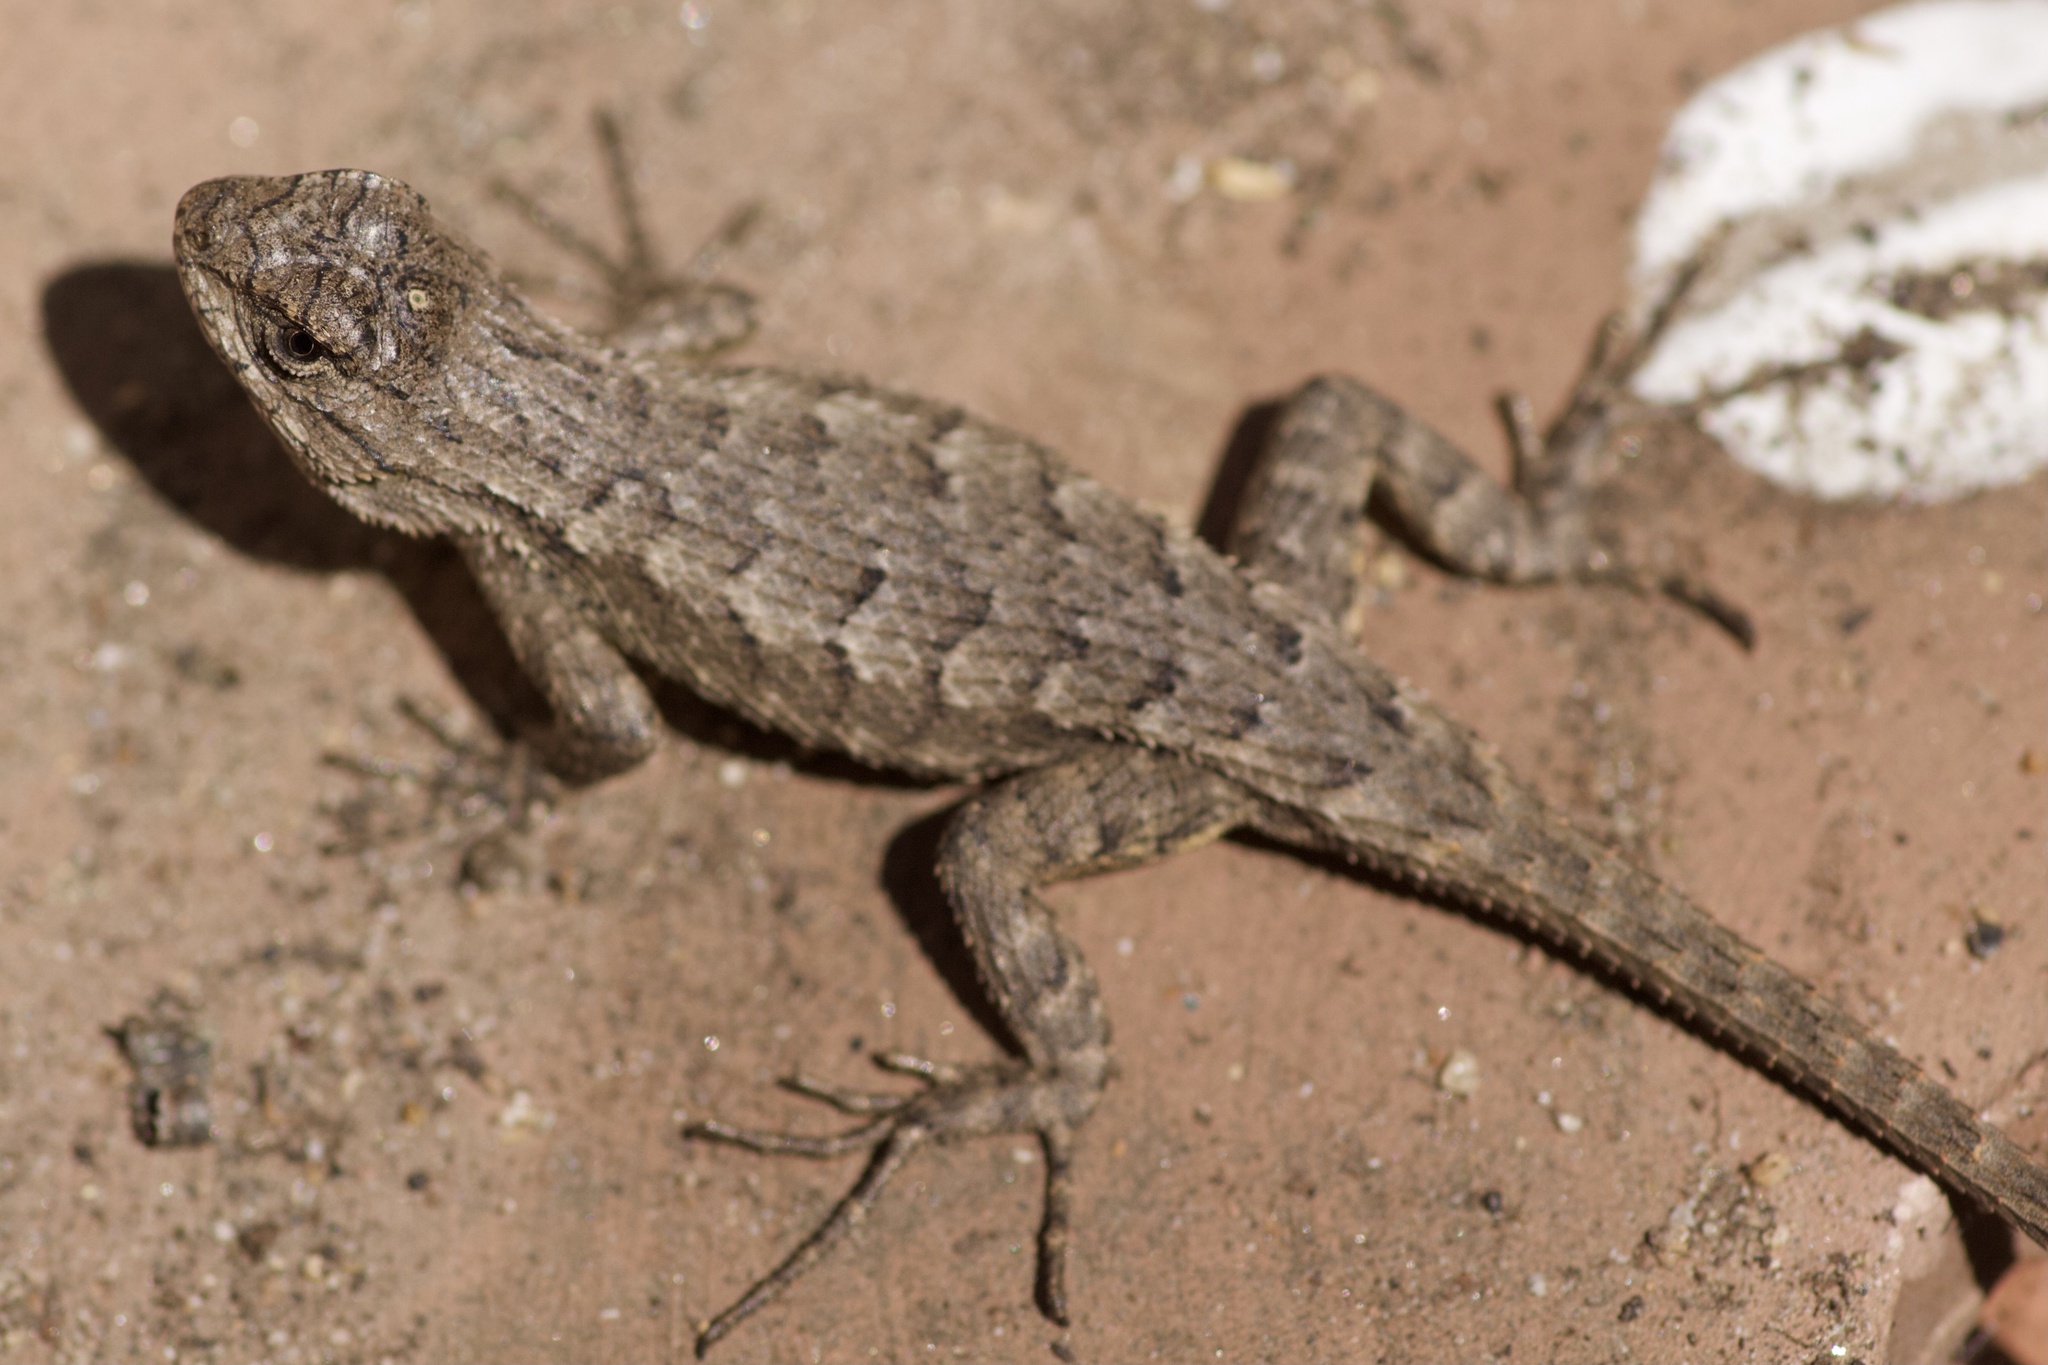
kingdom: Animalia
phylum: Chordata
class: Squamata
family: Phrynosomatidae
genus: Sceloporus
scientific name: Sceloporus occidentalis
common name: Western fence lizard
